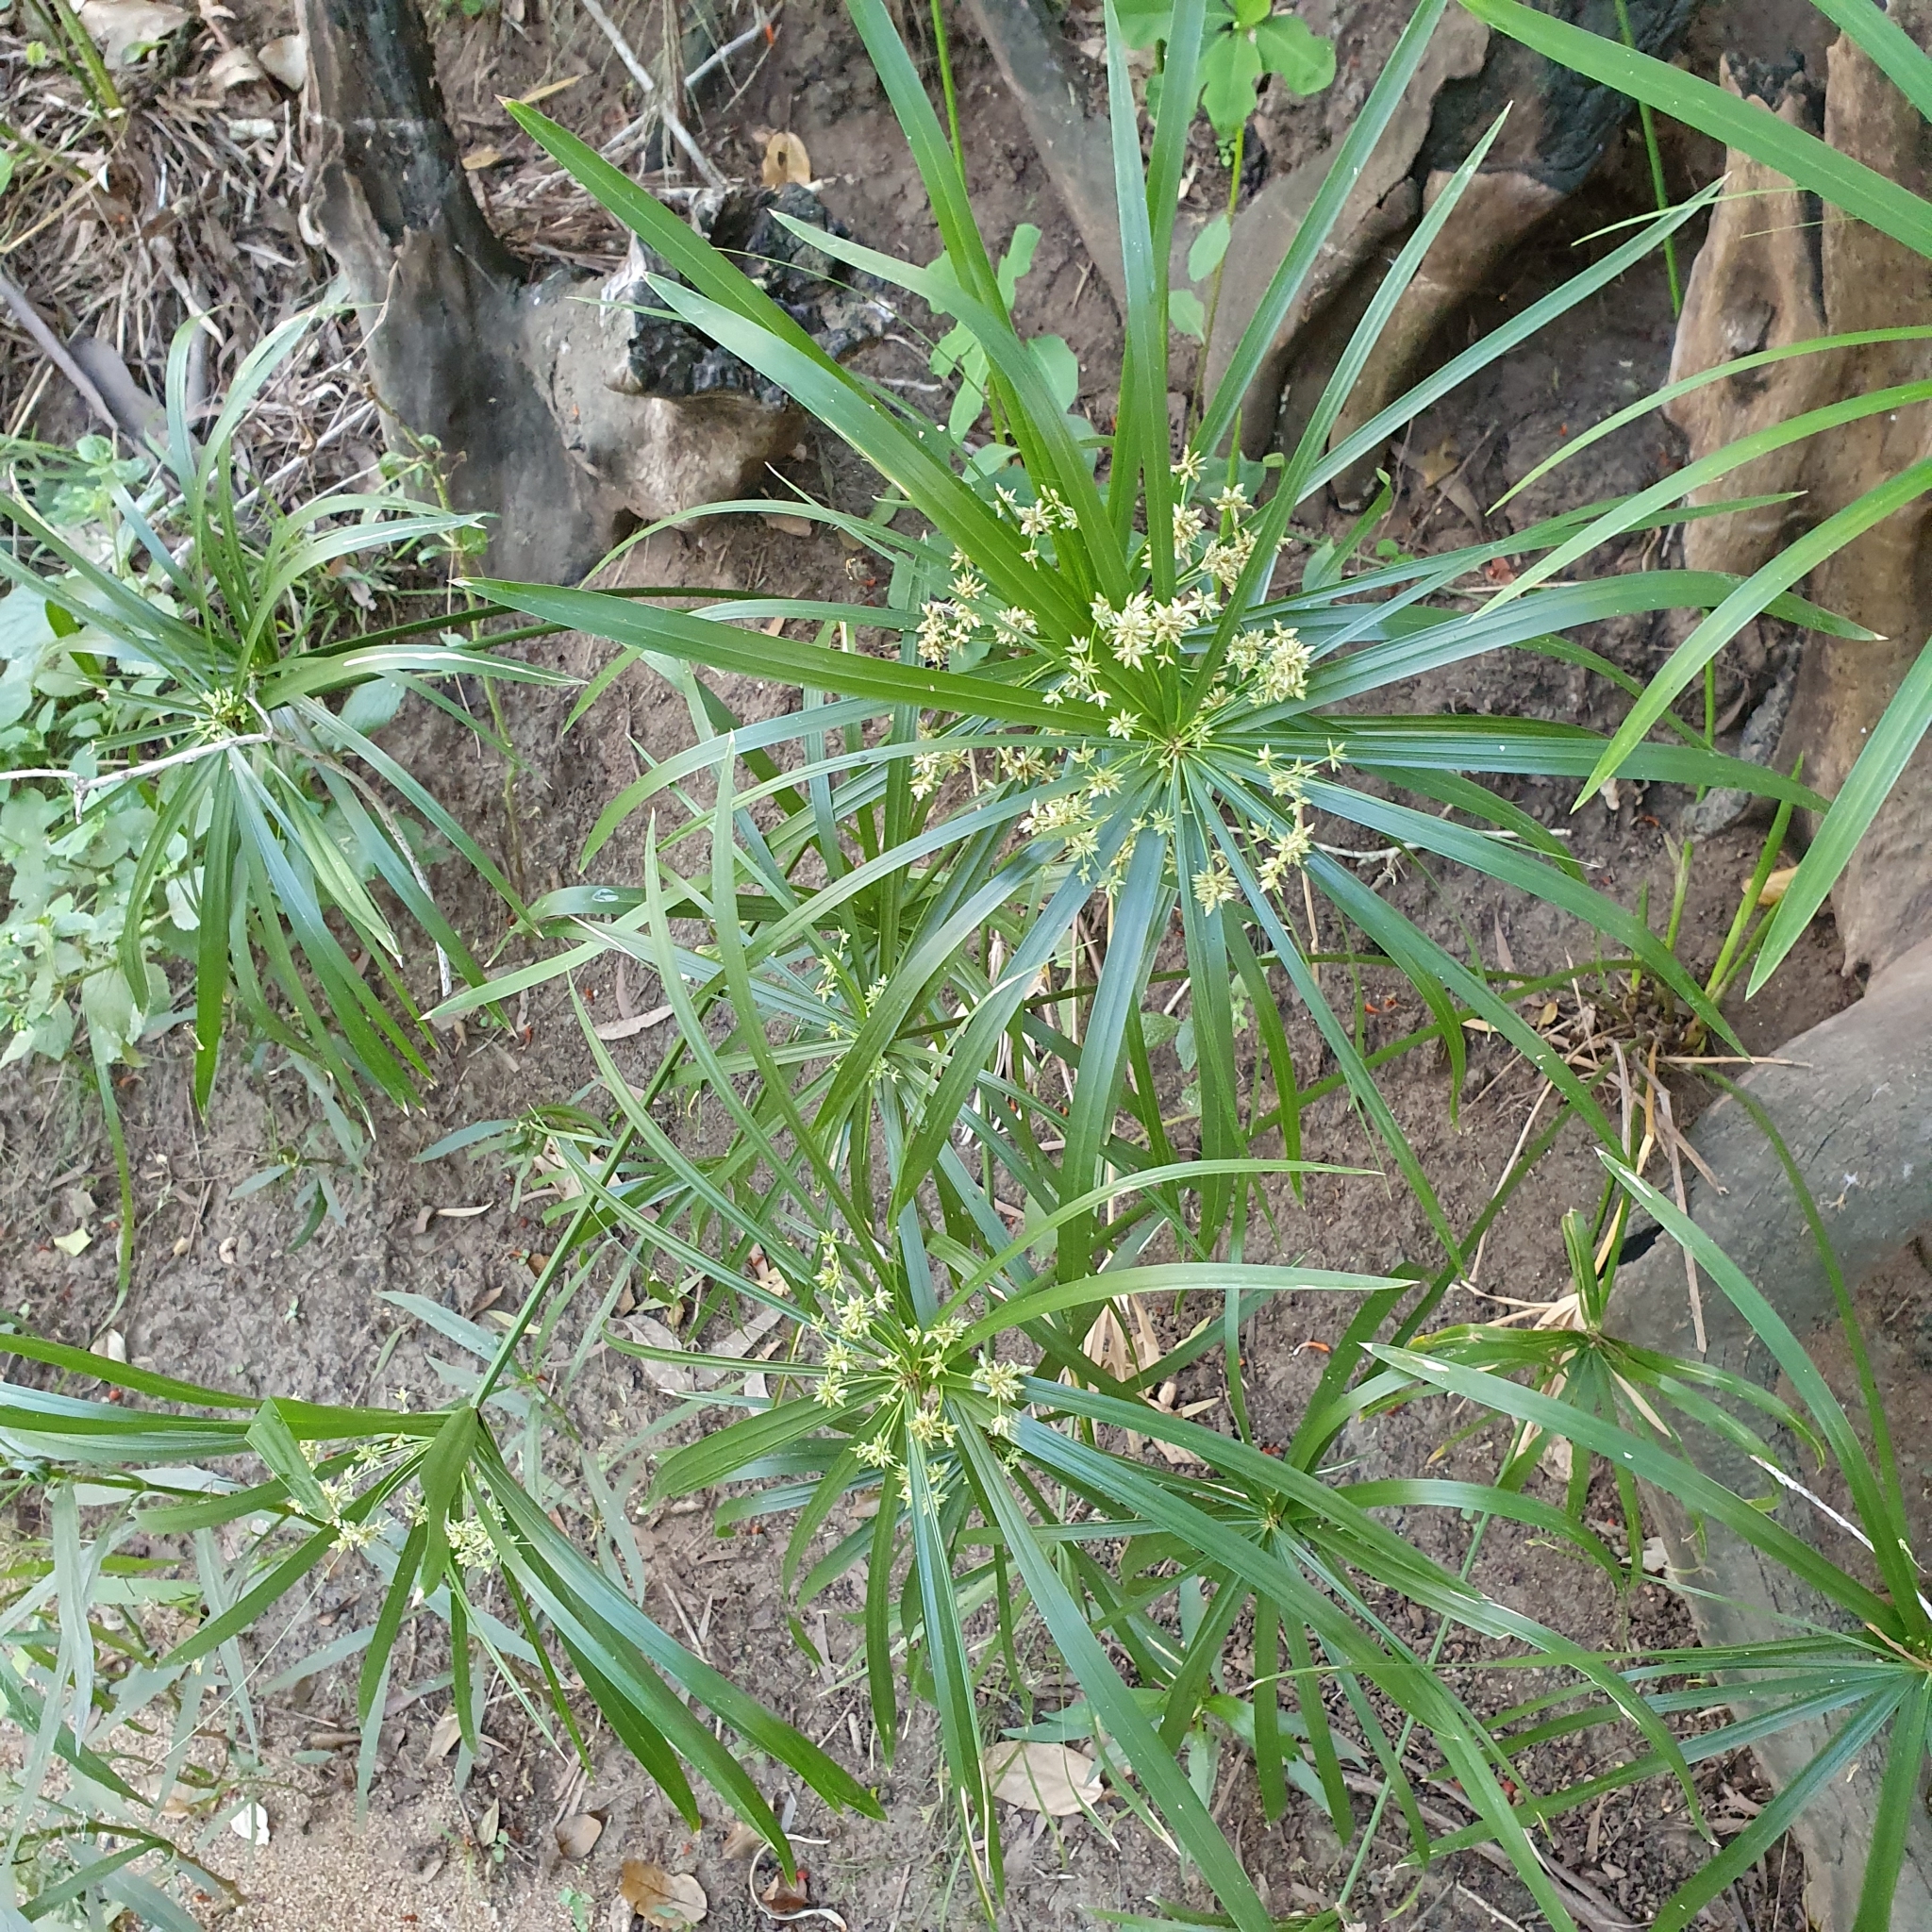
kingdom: Plantae
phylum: Tracheophyta
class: Liliopsida
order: Poales
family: Cyperaceae
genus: Cyperus
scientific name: Cyperus alternifolius
